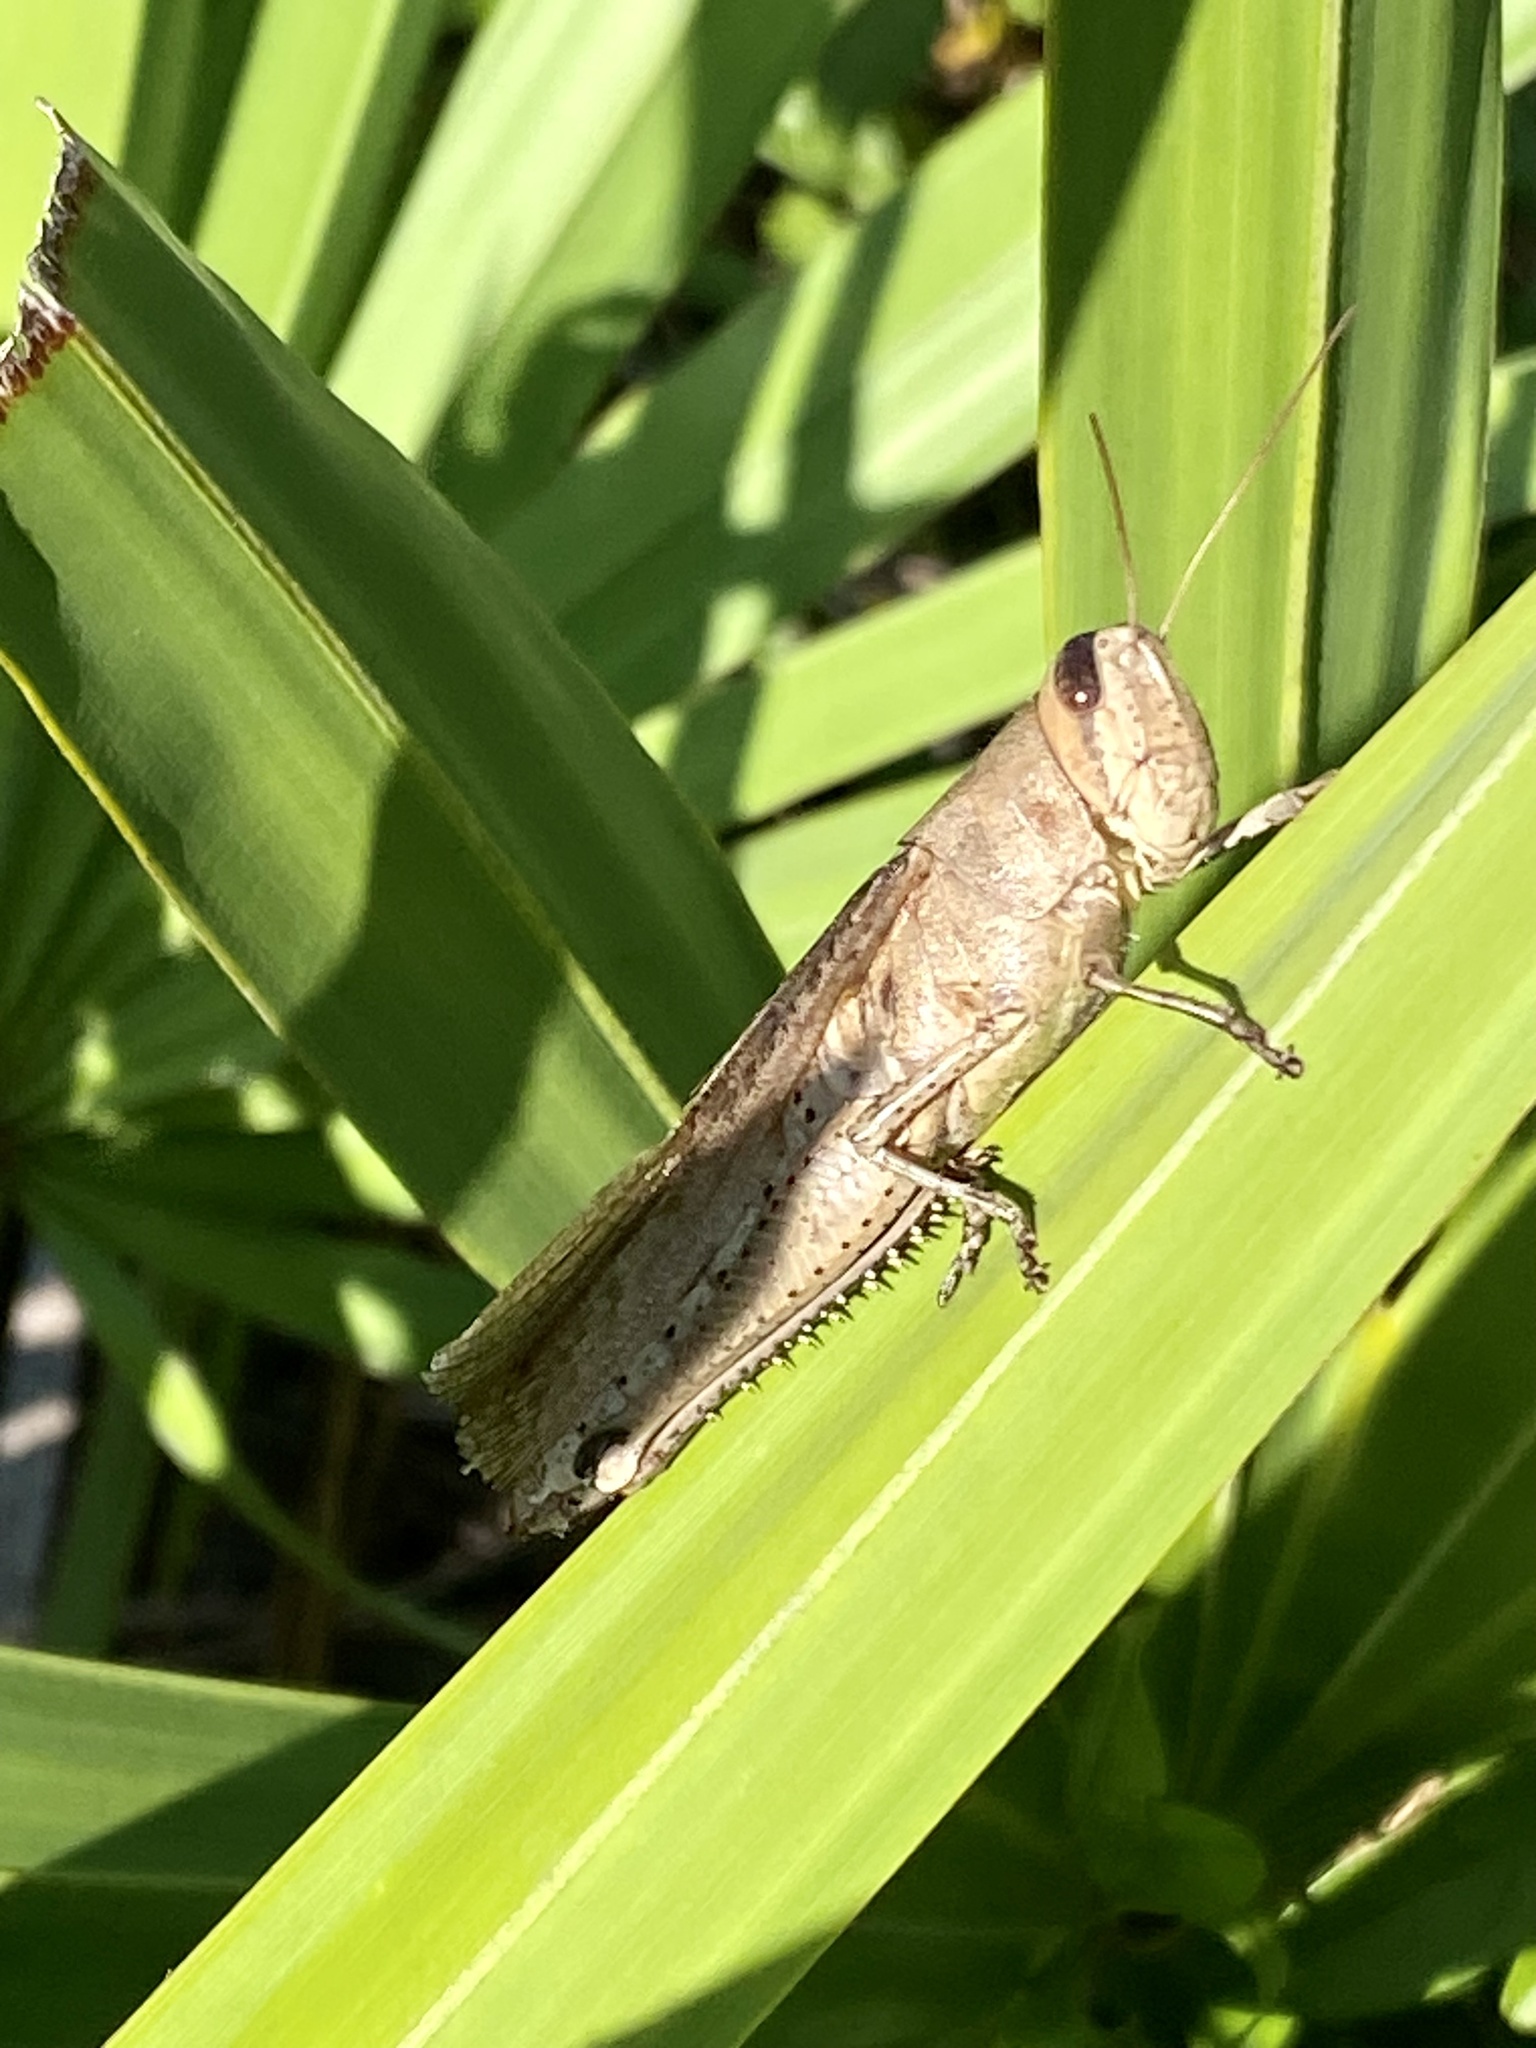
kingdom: Animalia
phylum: Arthropoda
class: Insecta
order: Orthoptera
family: Acrididae
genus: Schistocerca
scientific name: Schistocerca rubiginosa
